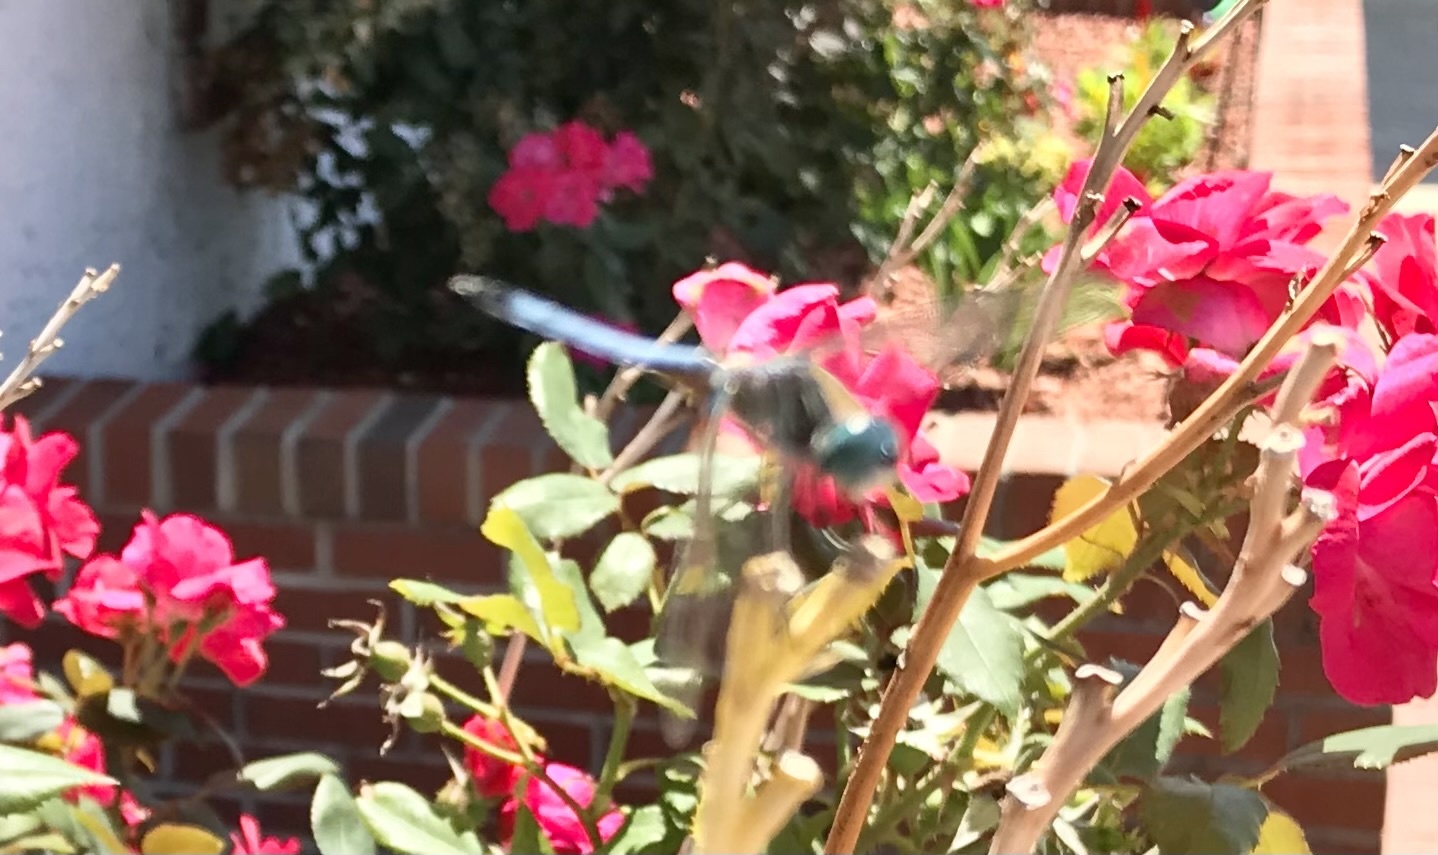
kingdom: Animalia
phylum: Arthropoda
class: Insecta
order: Odonata
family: Libellulidae
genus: Pachydiplax
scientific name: Pachydiplax longipennis
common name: Blue dasher
